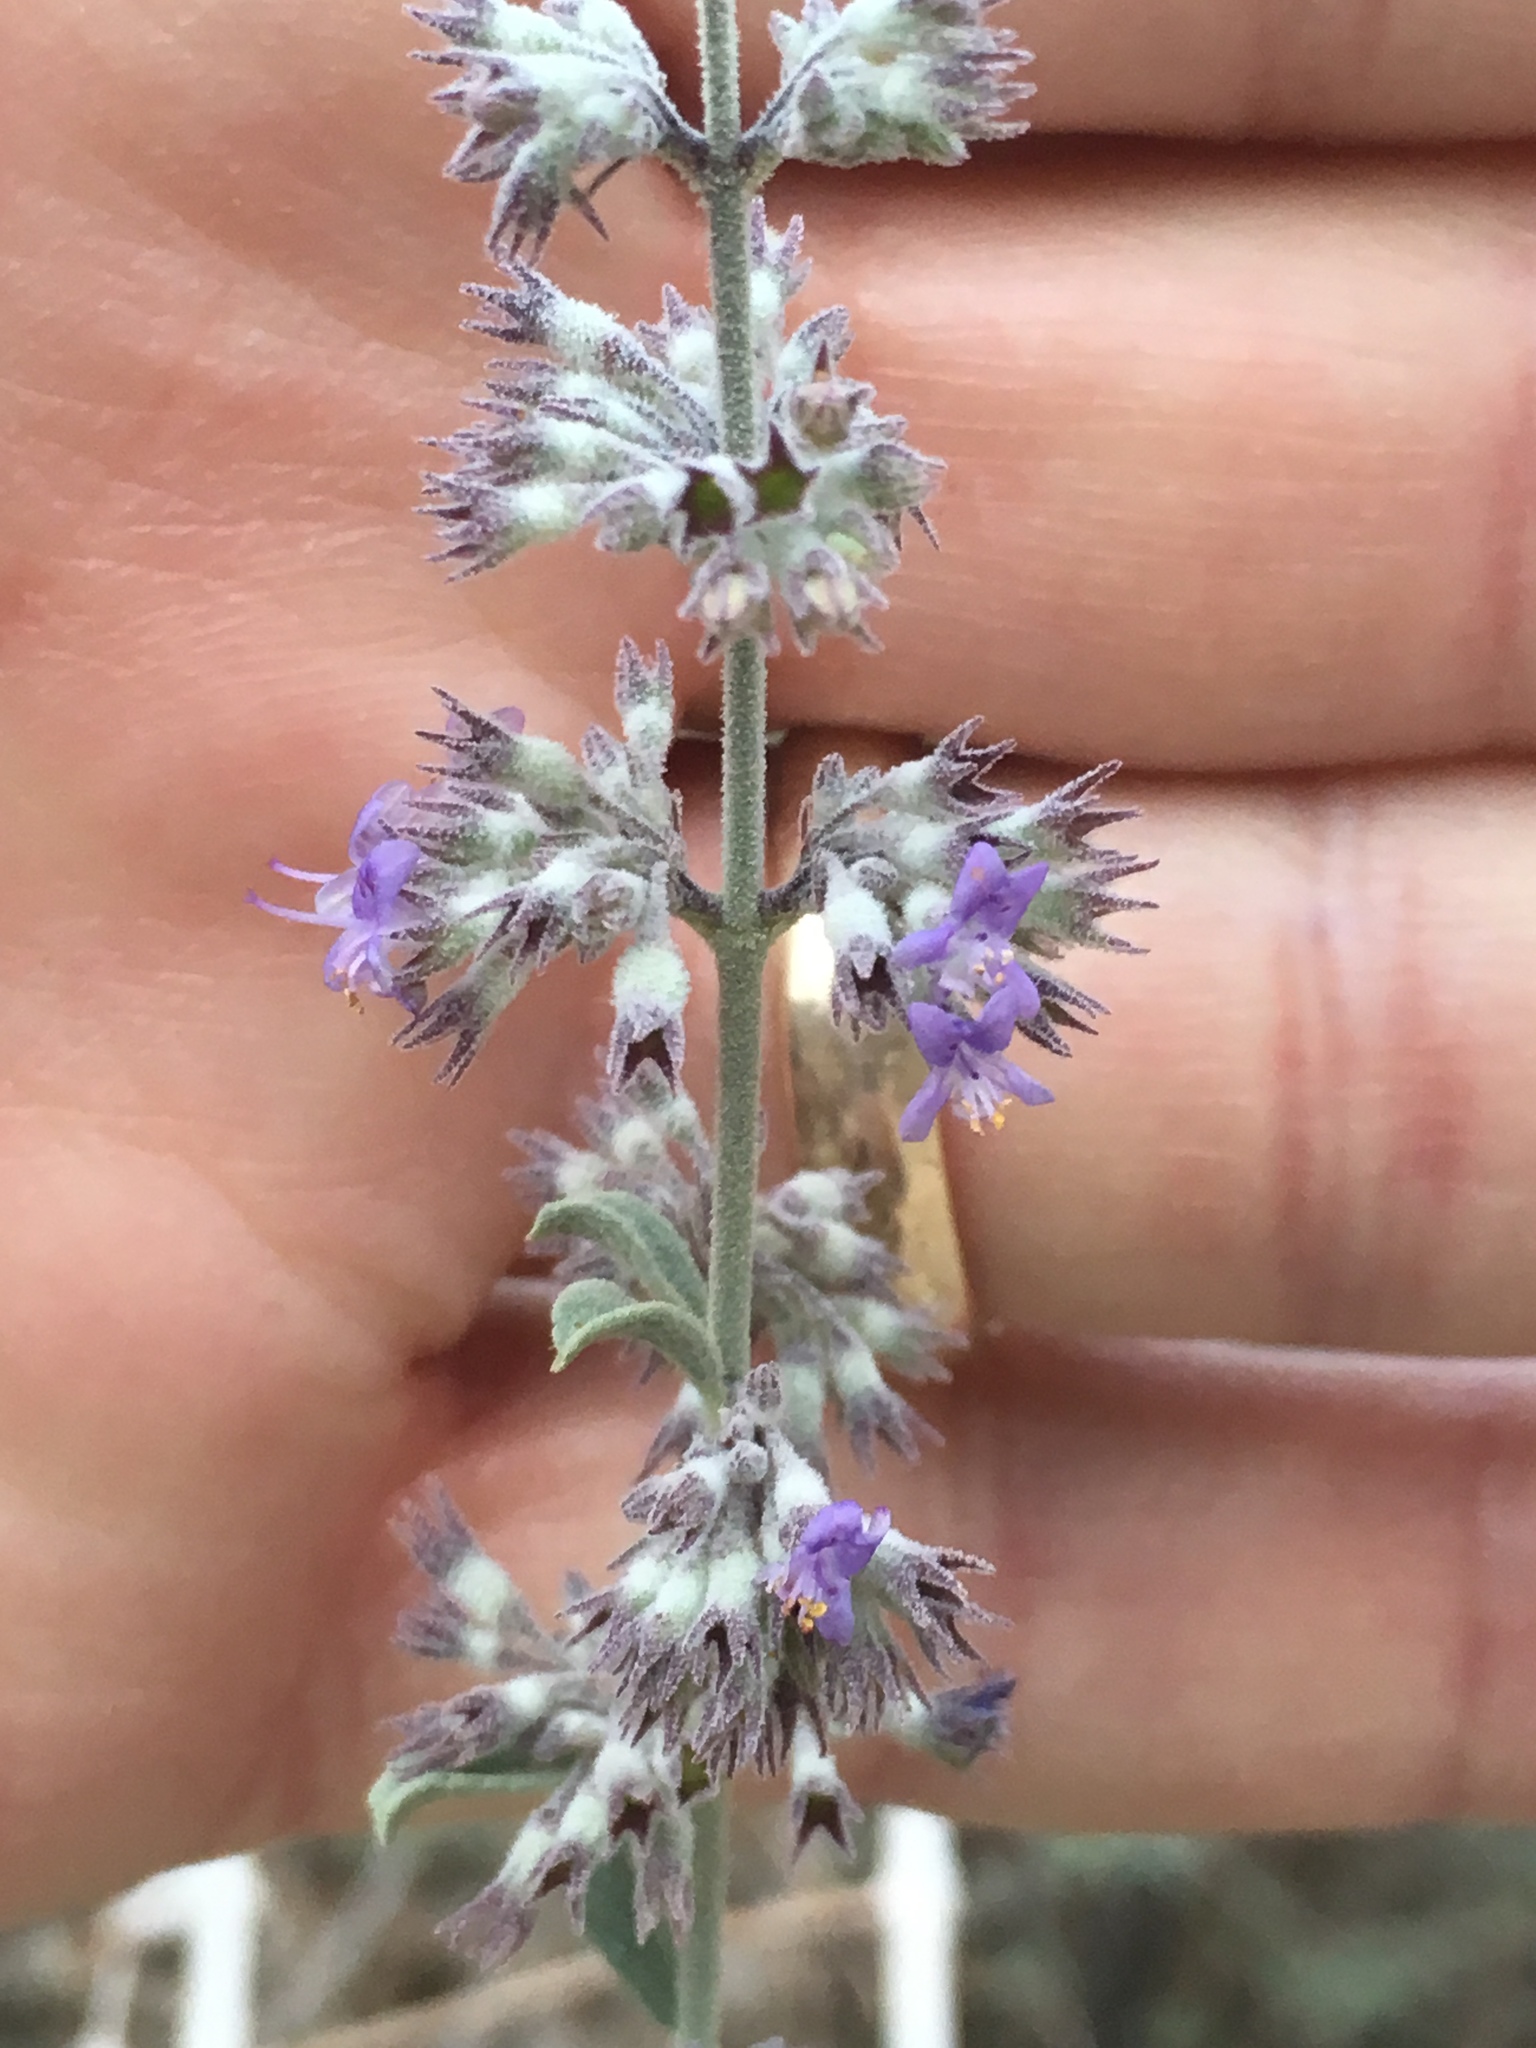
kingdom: Plantae
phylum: Tracheophyta
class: Magnoliopsida
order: Lamiales
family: Lamiaceae
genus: Condea
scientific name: Condea emoryi
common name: Chia
